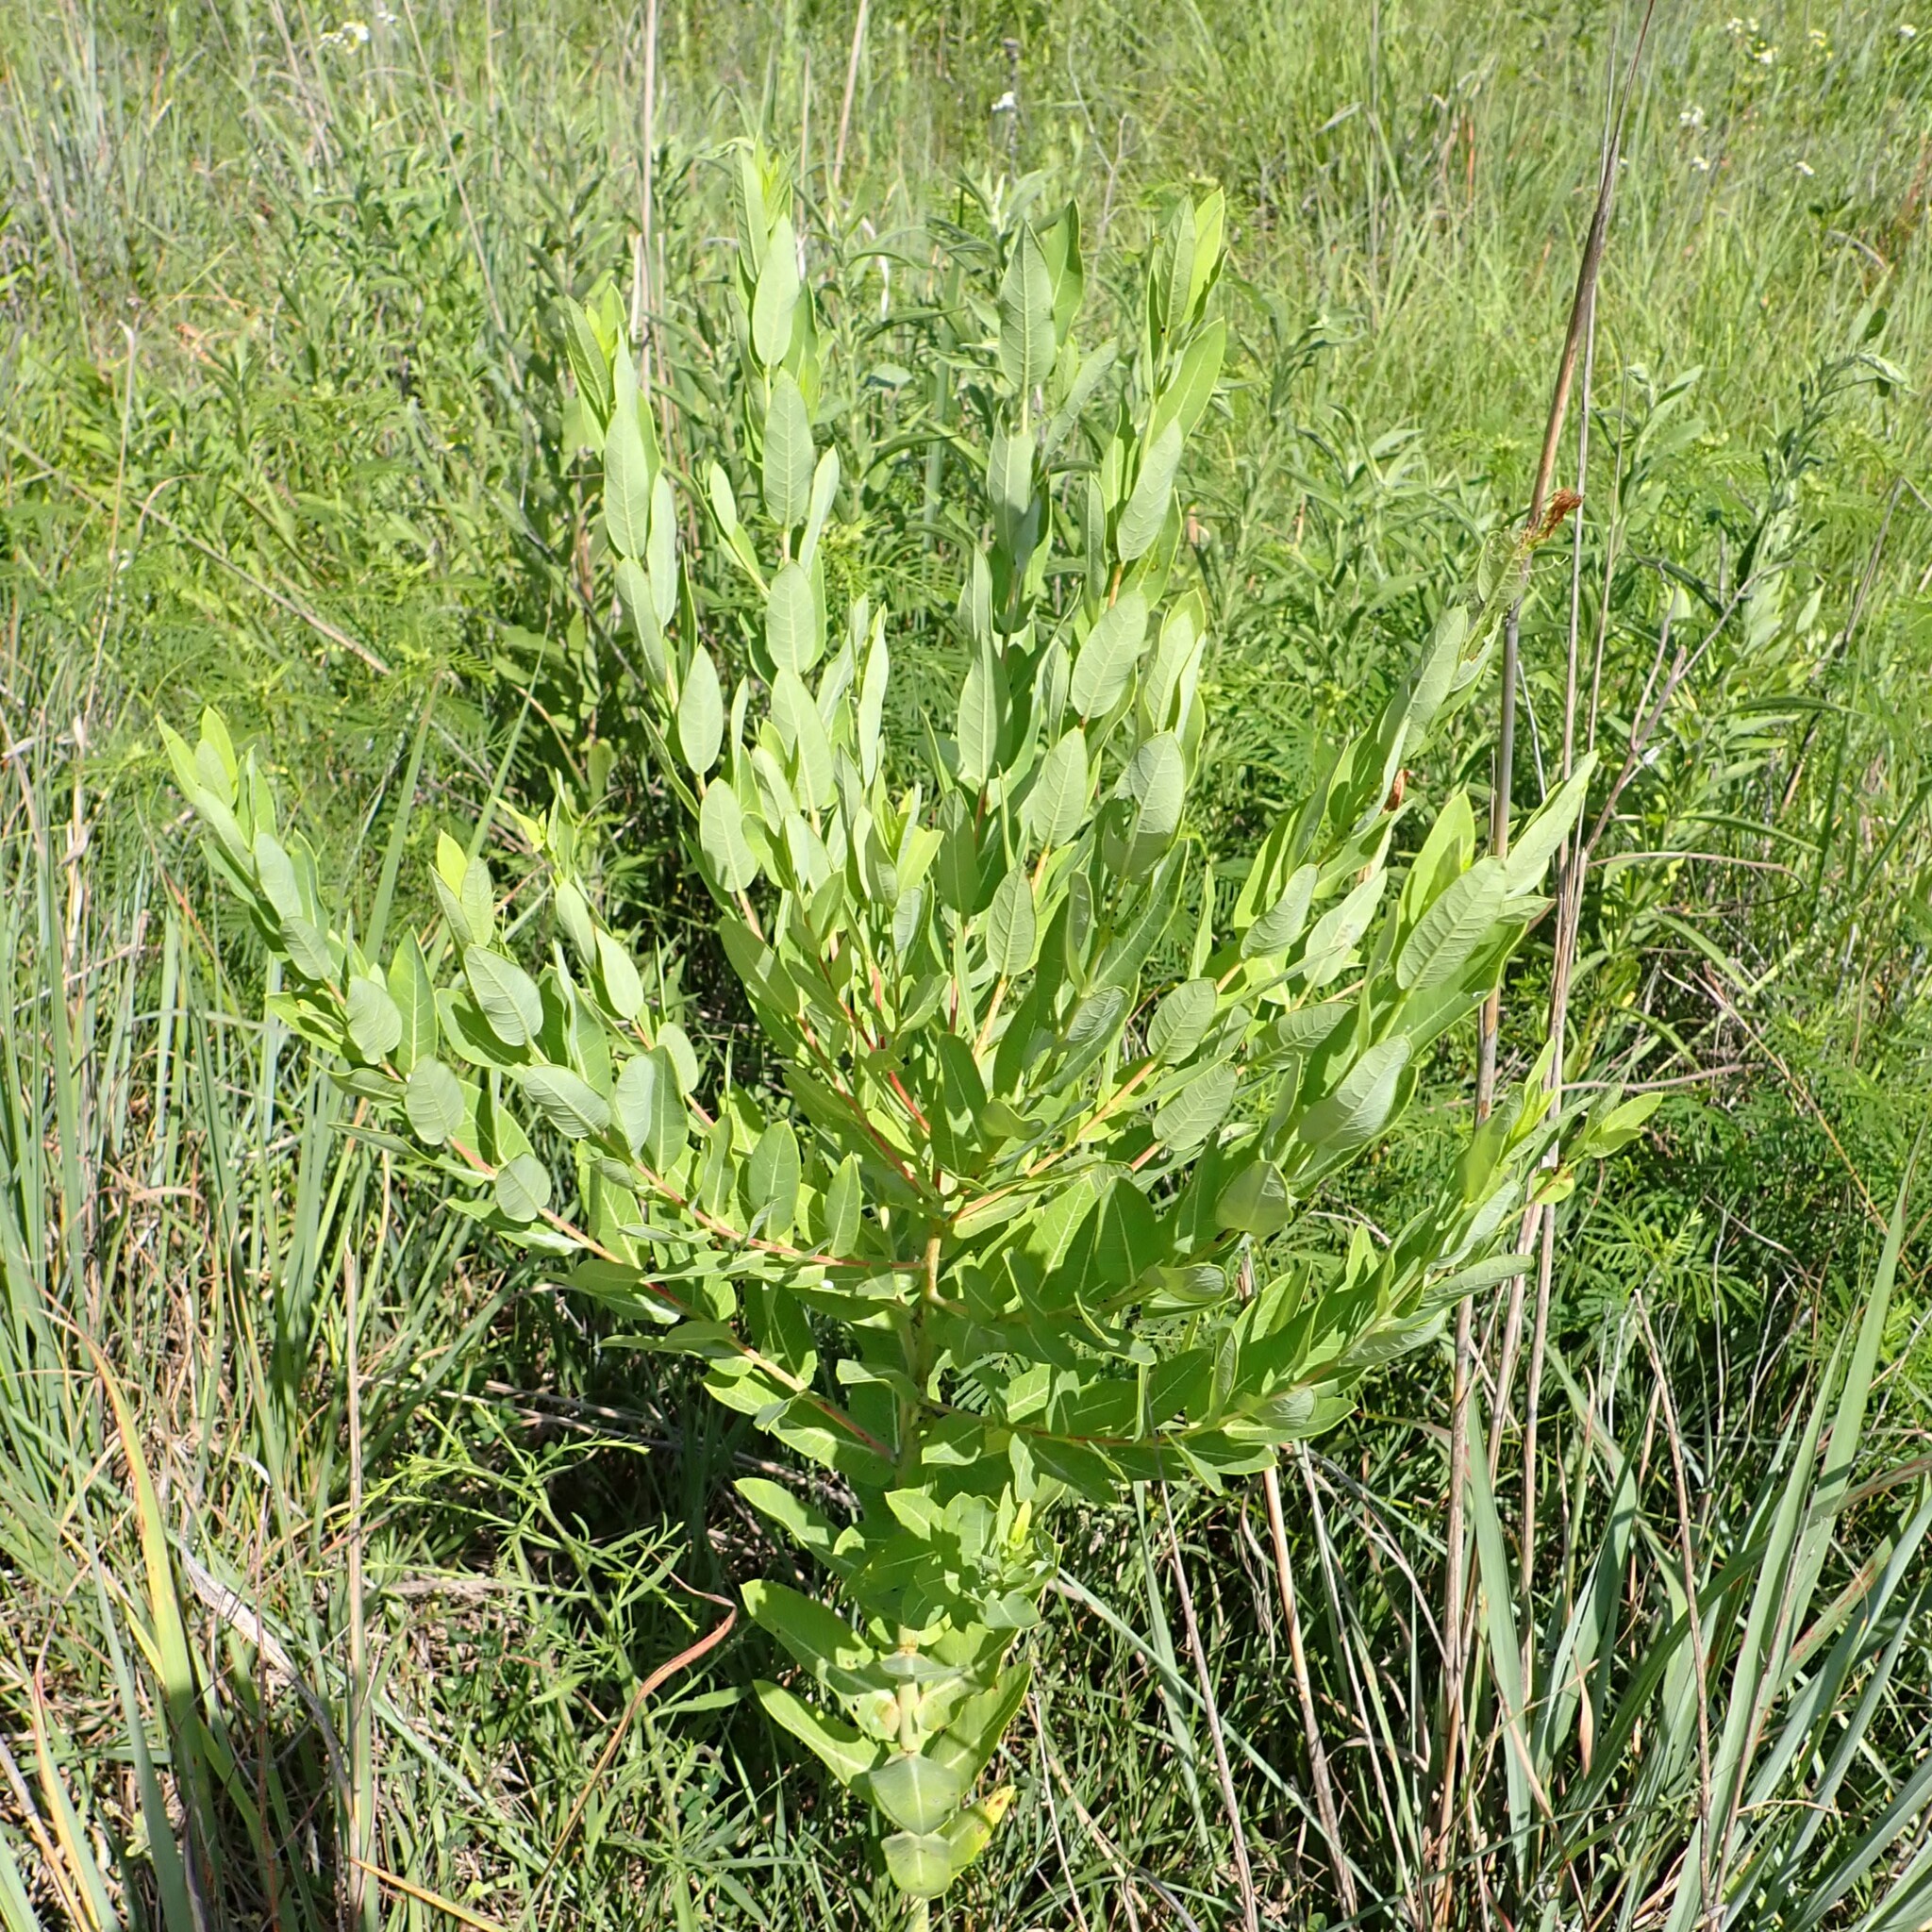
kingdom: Plantae
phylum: Tracheophyta
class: Magnoliopsida
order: Gentianales
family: Apocynaceae
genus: Apocynum
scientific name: Apocynum cannabinum
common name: Hemp dogbane
